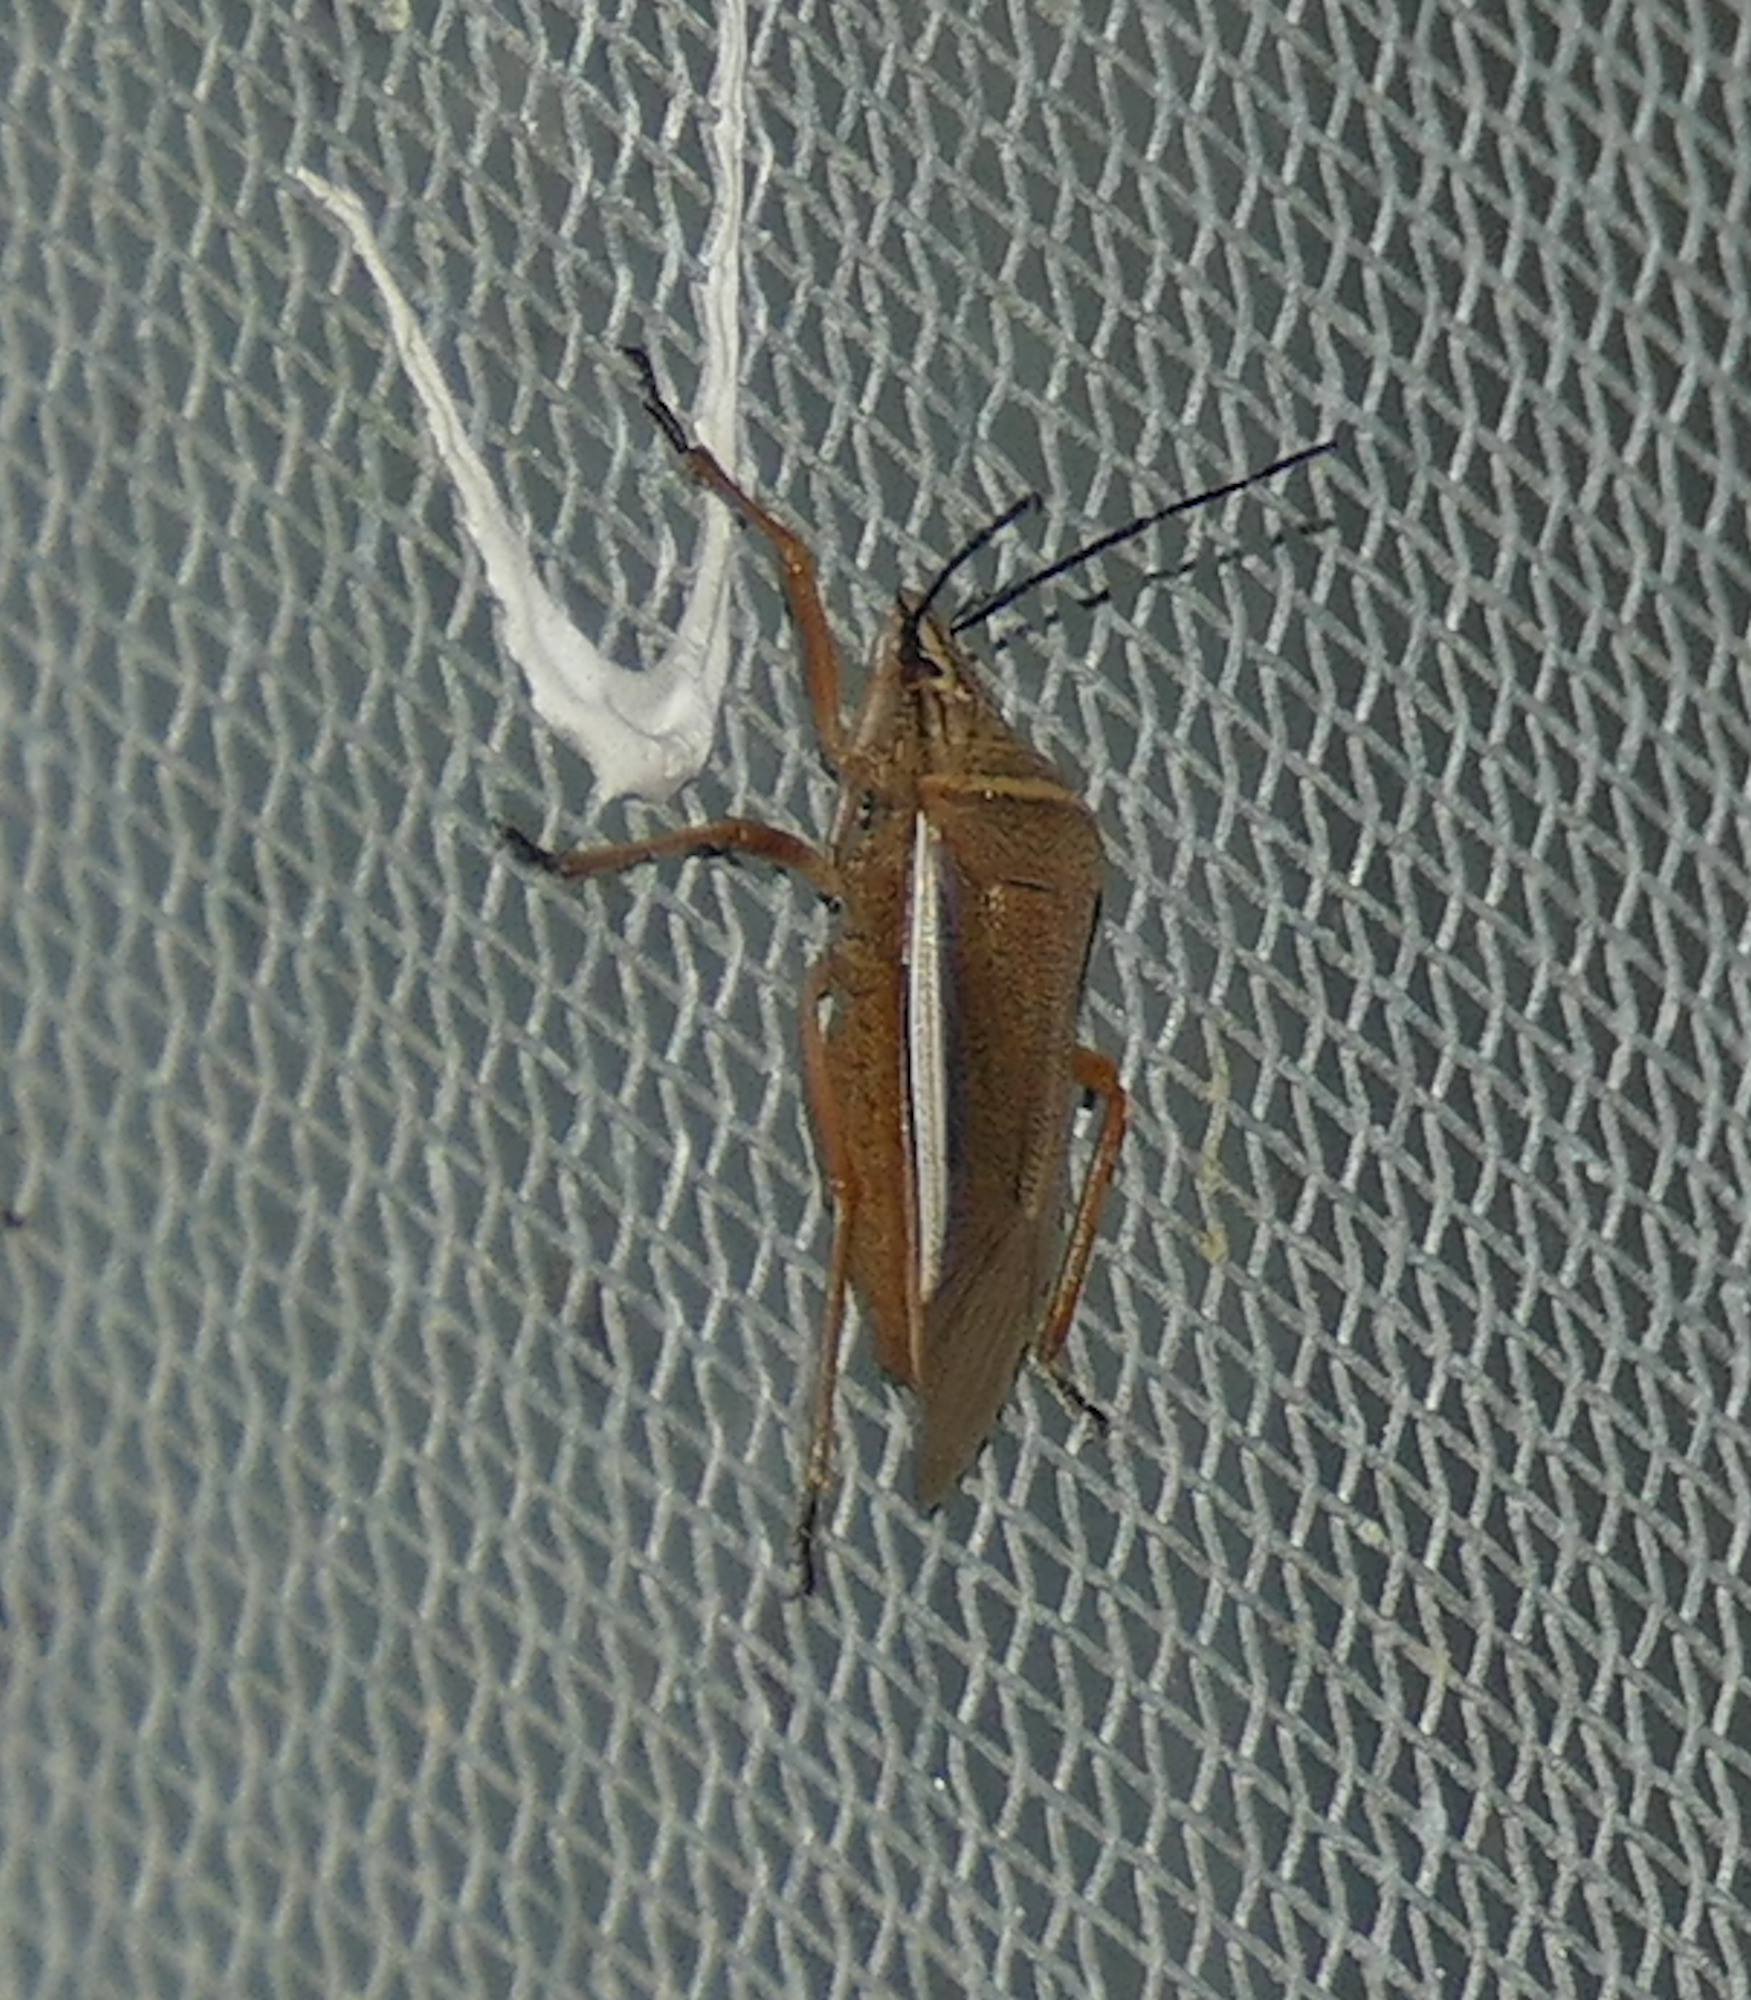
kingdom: Animalia
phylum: Arthropoda
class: Insecta
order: Hemiptera
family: Pentatomidae
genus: Andrallus
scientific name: Andrallus spinidens
